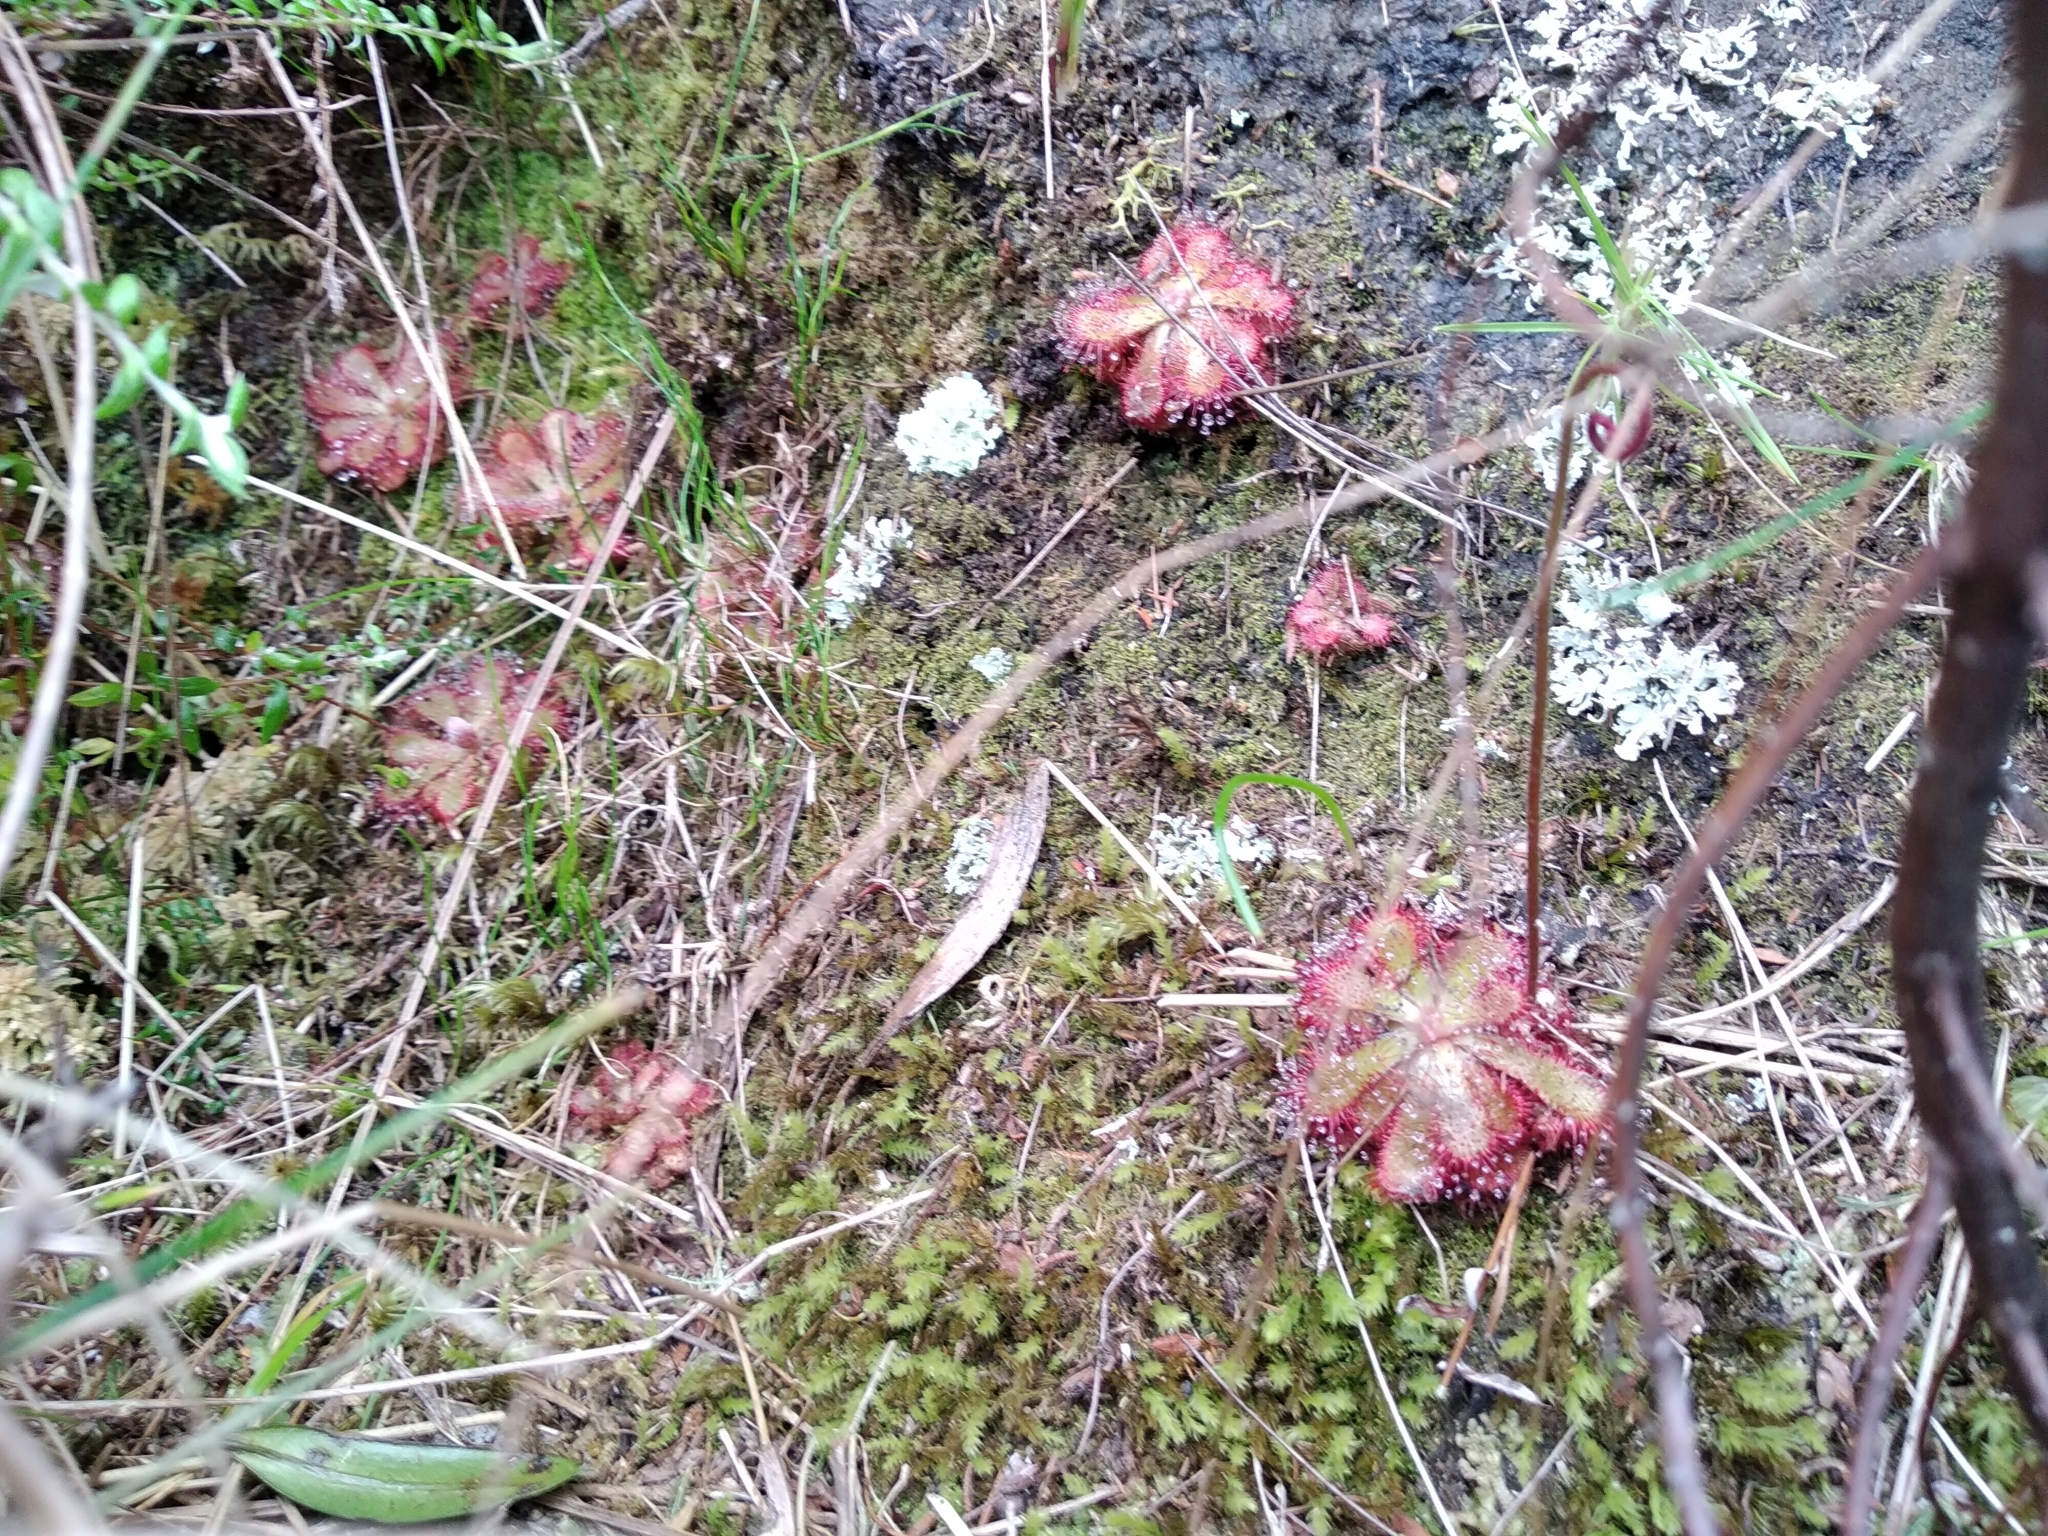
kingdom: Plantae
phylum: Tracheophyta
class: Magnoliopsida
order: Caryophyllales
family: Droseraceae
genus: Drosera
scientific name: Drosera aliciae
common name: Alice sundew
